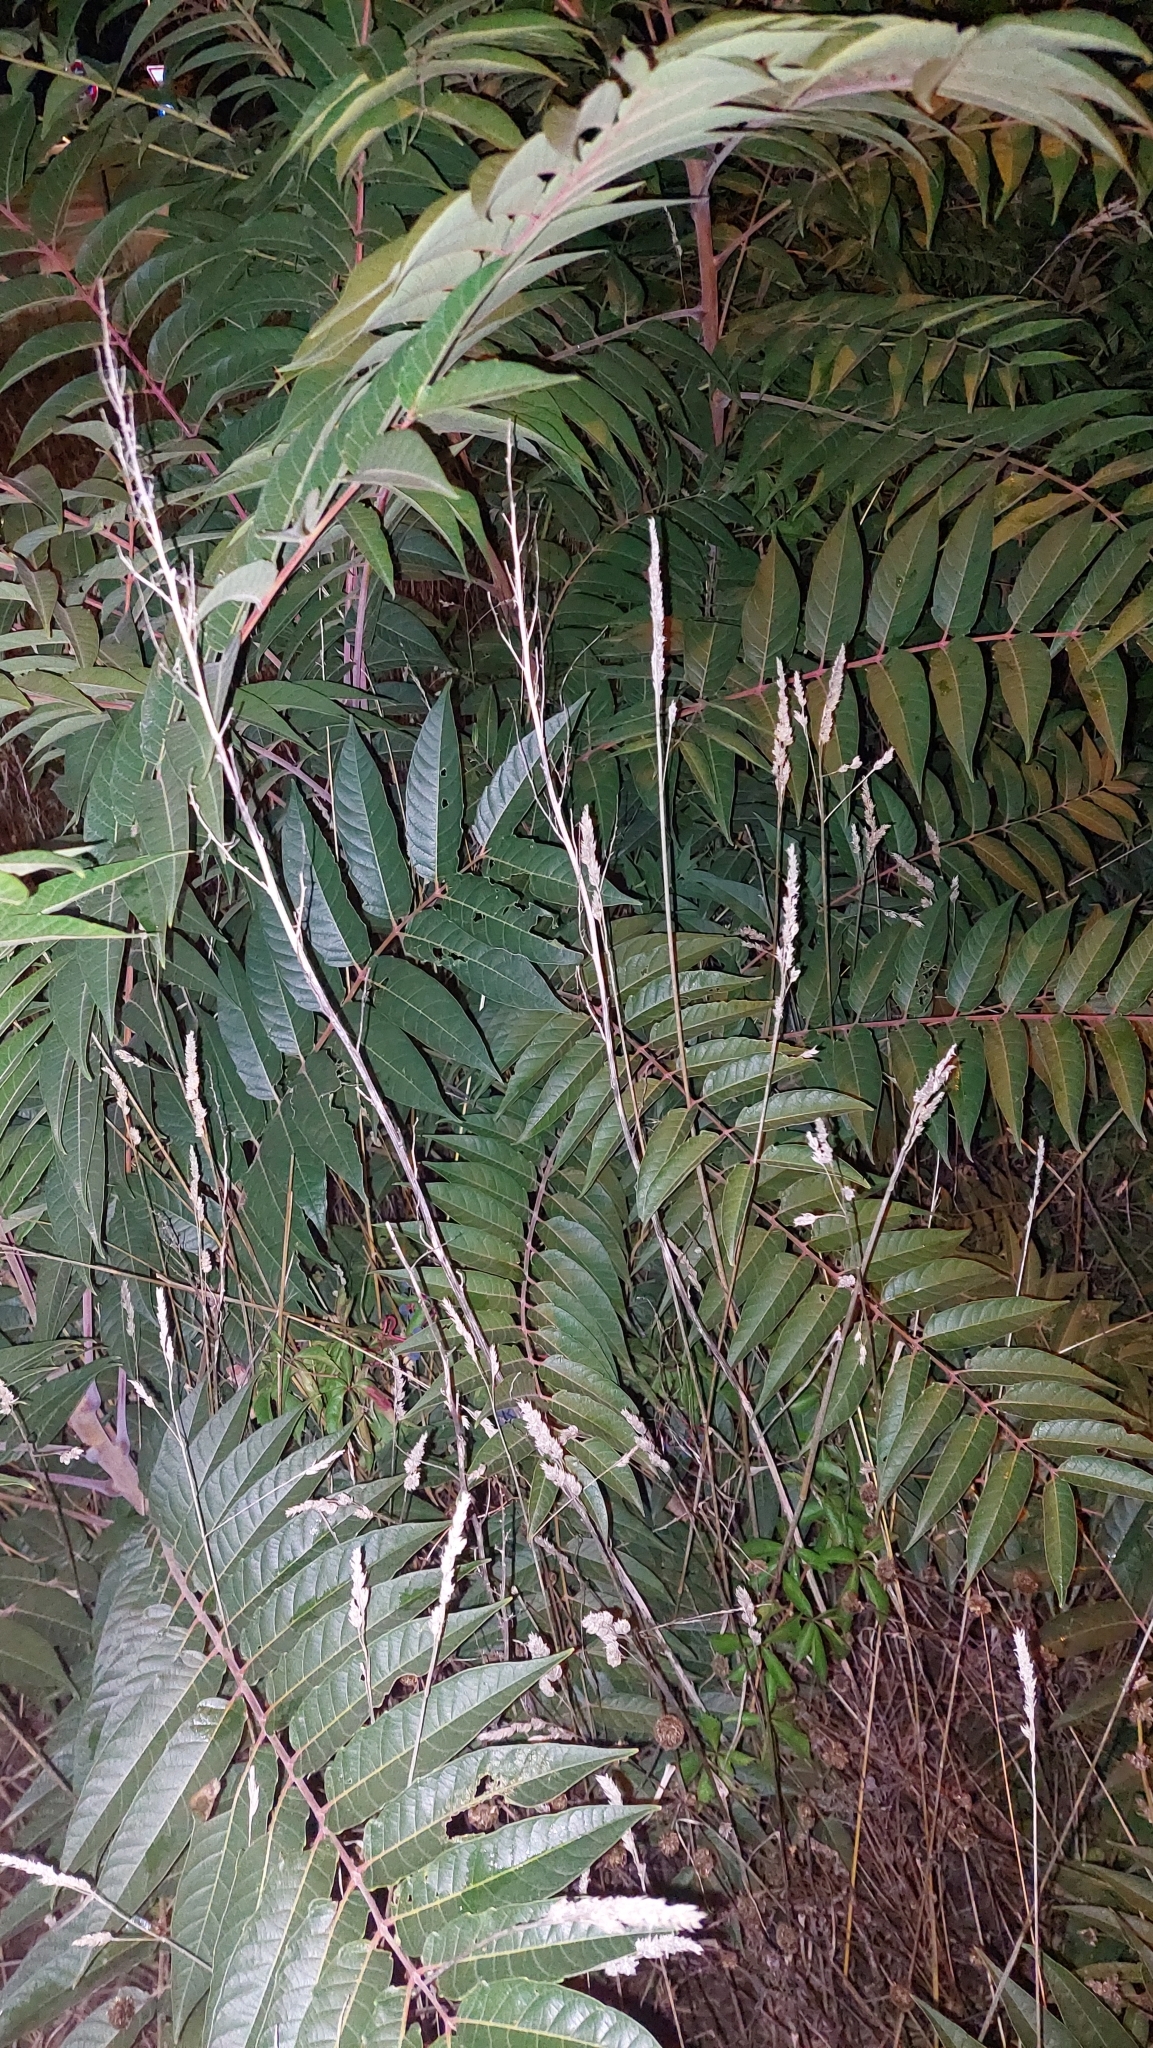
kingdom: Plantae
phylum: Tracheophyta
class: Magnoliopsida
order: Sapindales
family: Simaroubaceae
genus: Ailanthus
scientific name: Ailanthus altissima
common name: Tree-of-heaven
